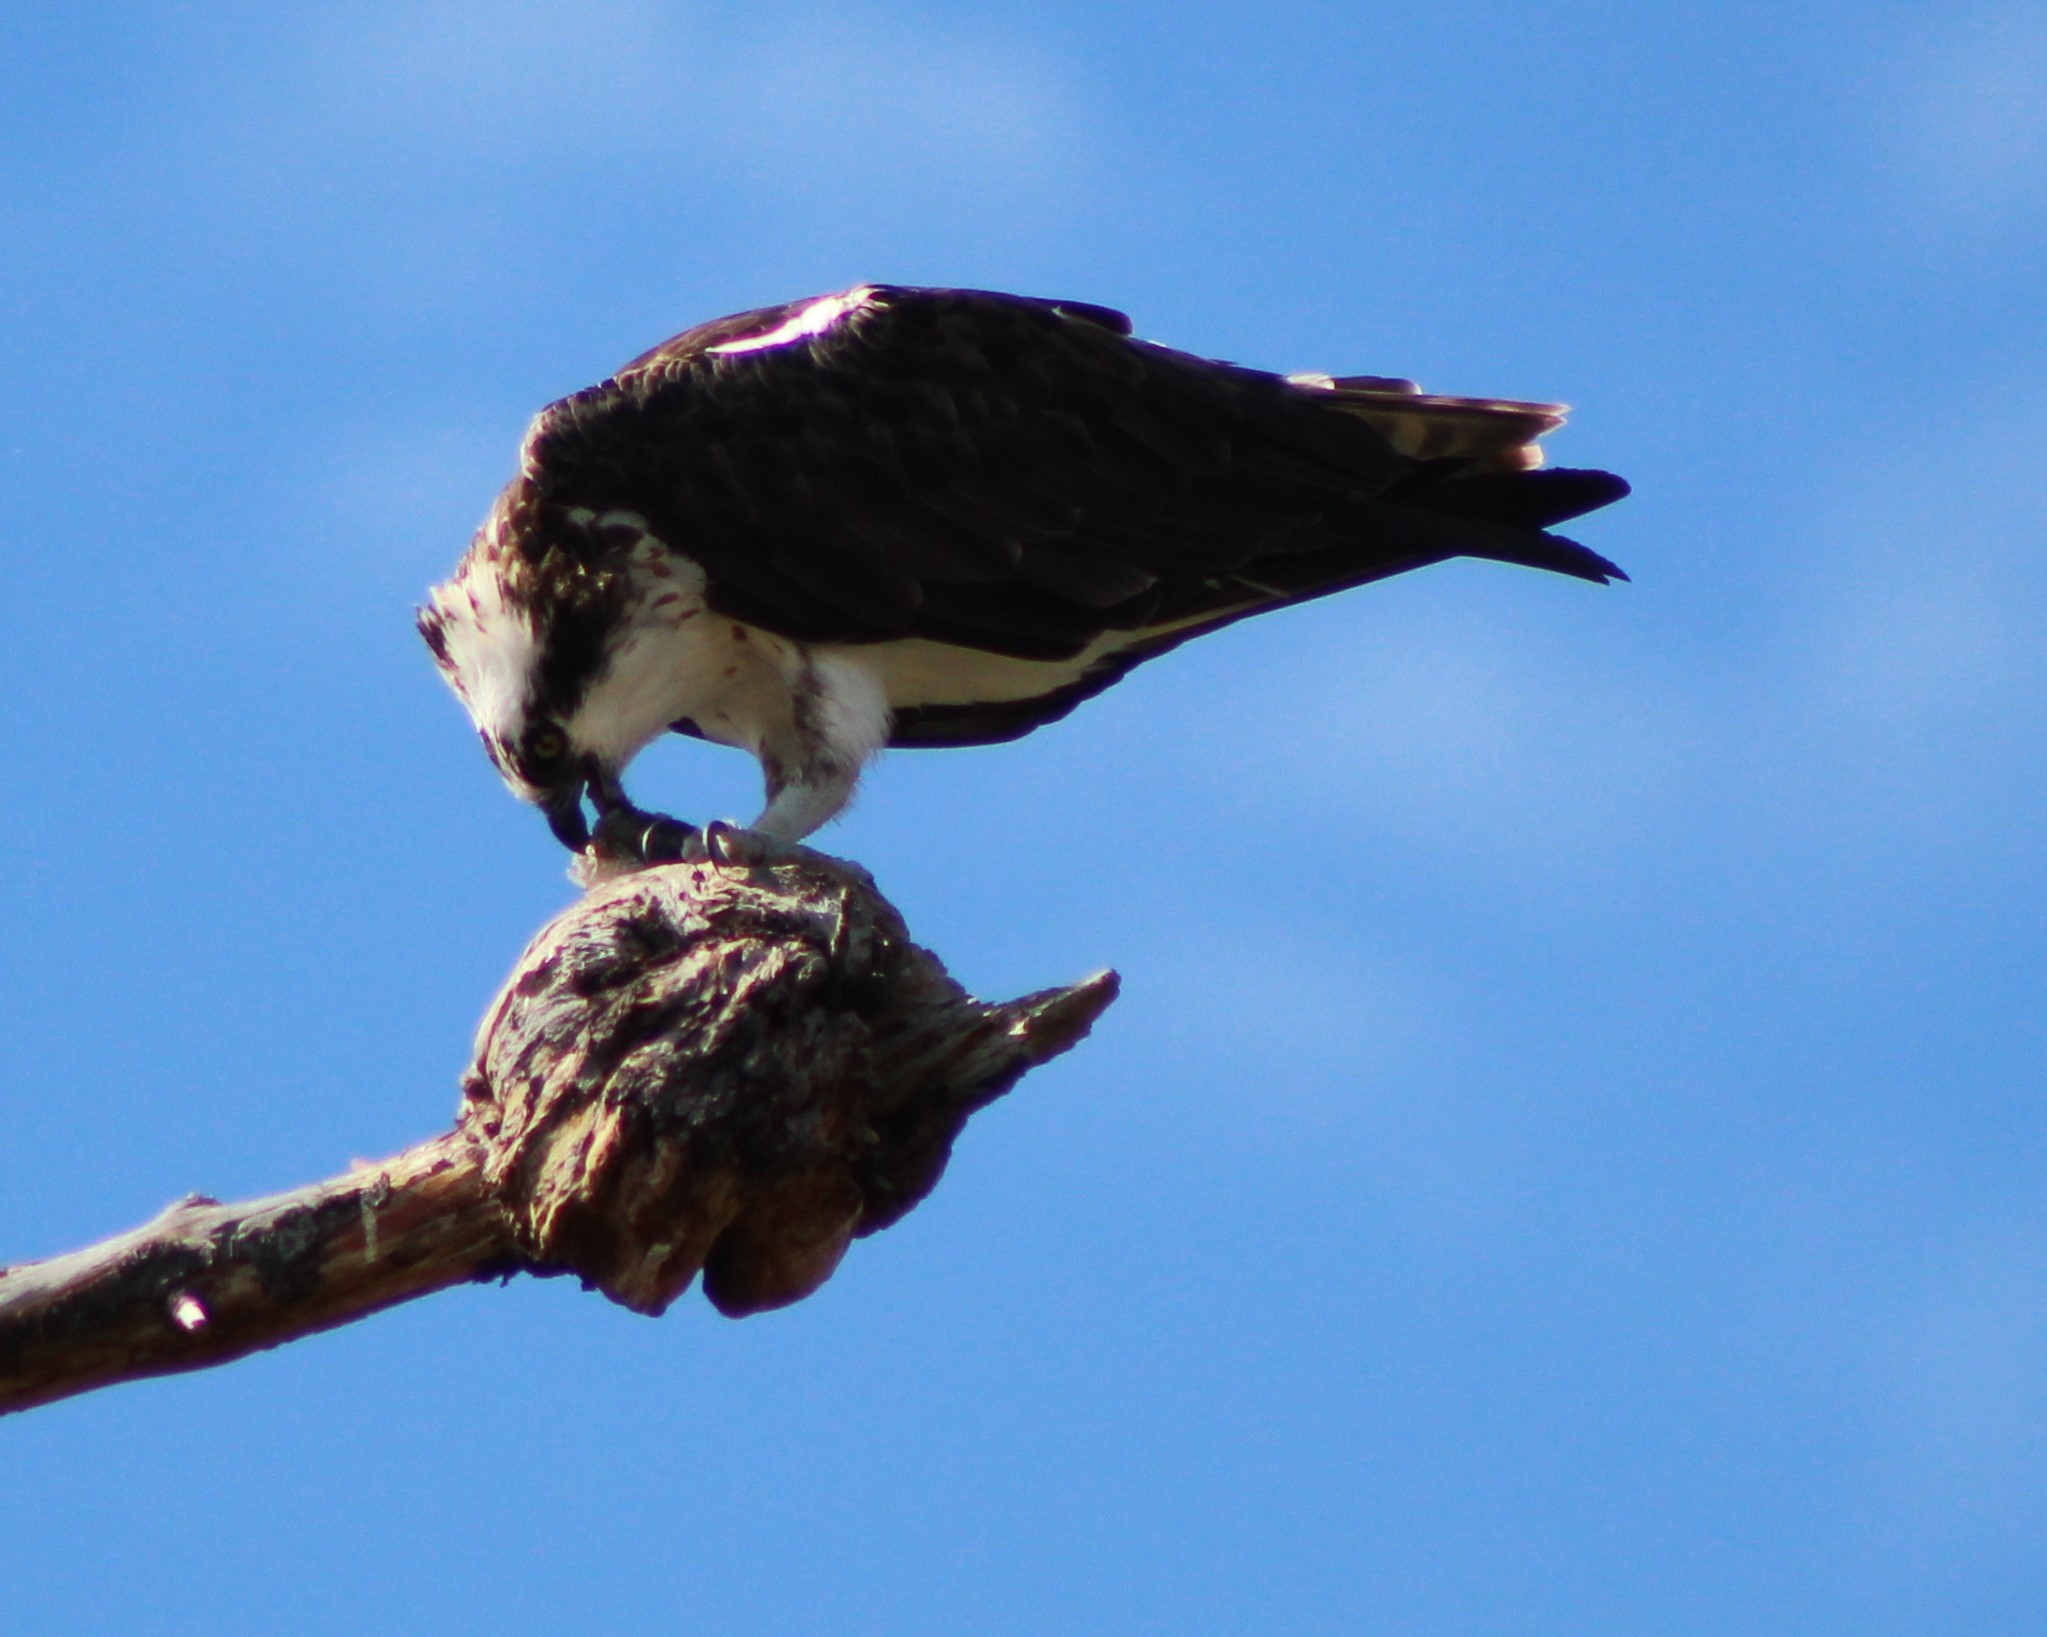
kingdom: Animalia
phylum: Chordata
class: Aves
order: Accipitriformes
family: Pandionidae
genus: Pandion
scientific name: Pandion haliaetus
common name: Osprey
